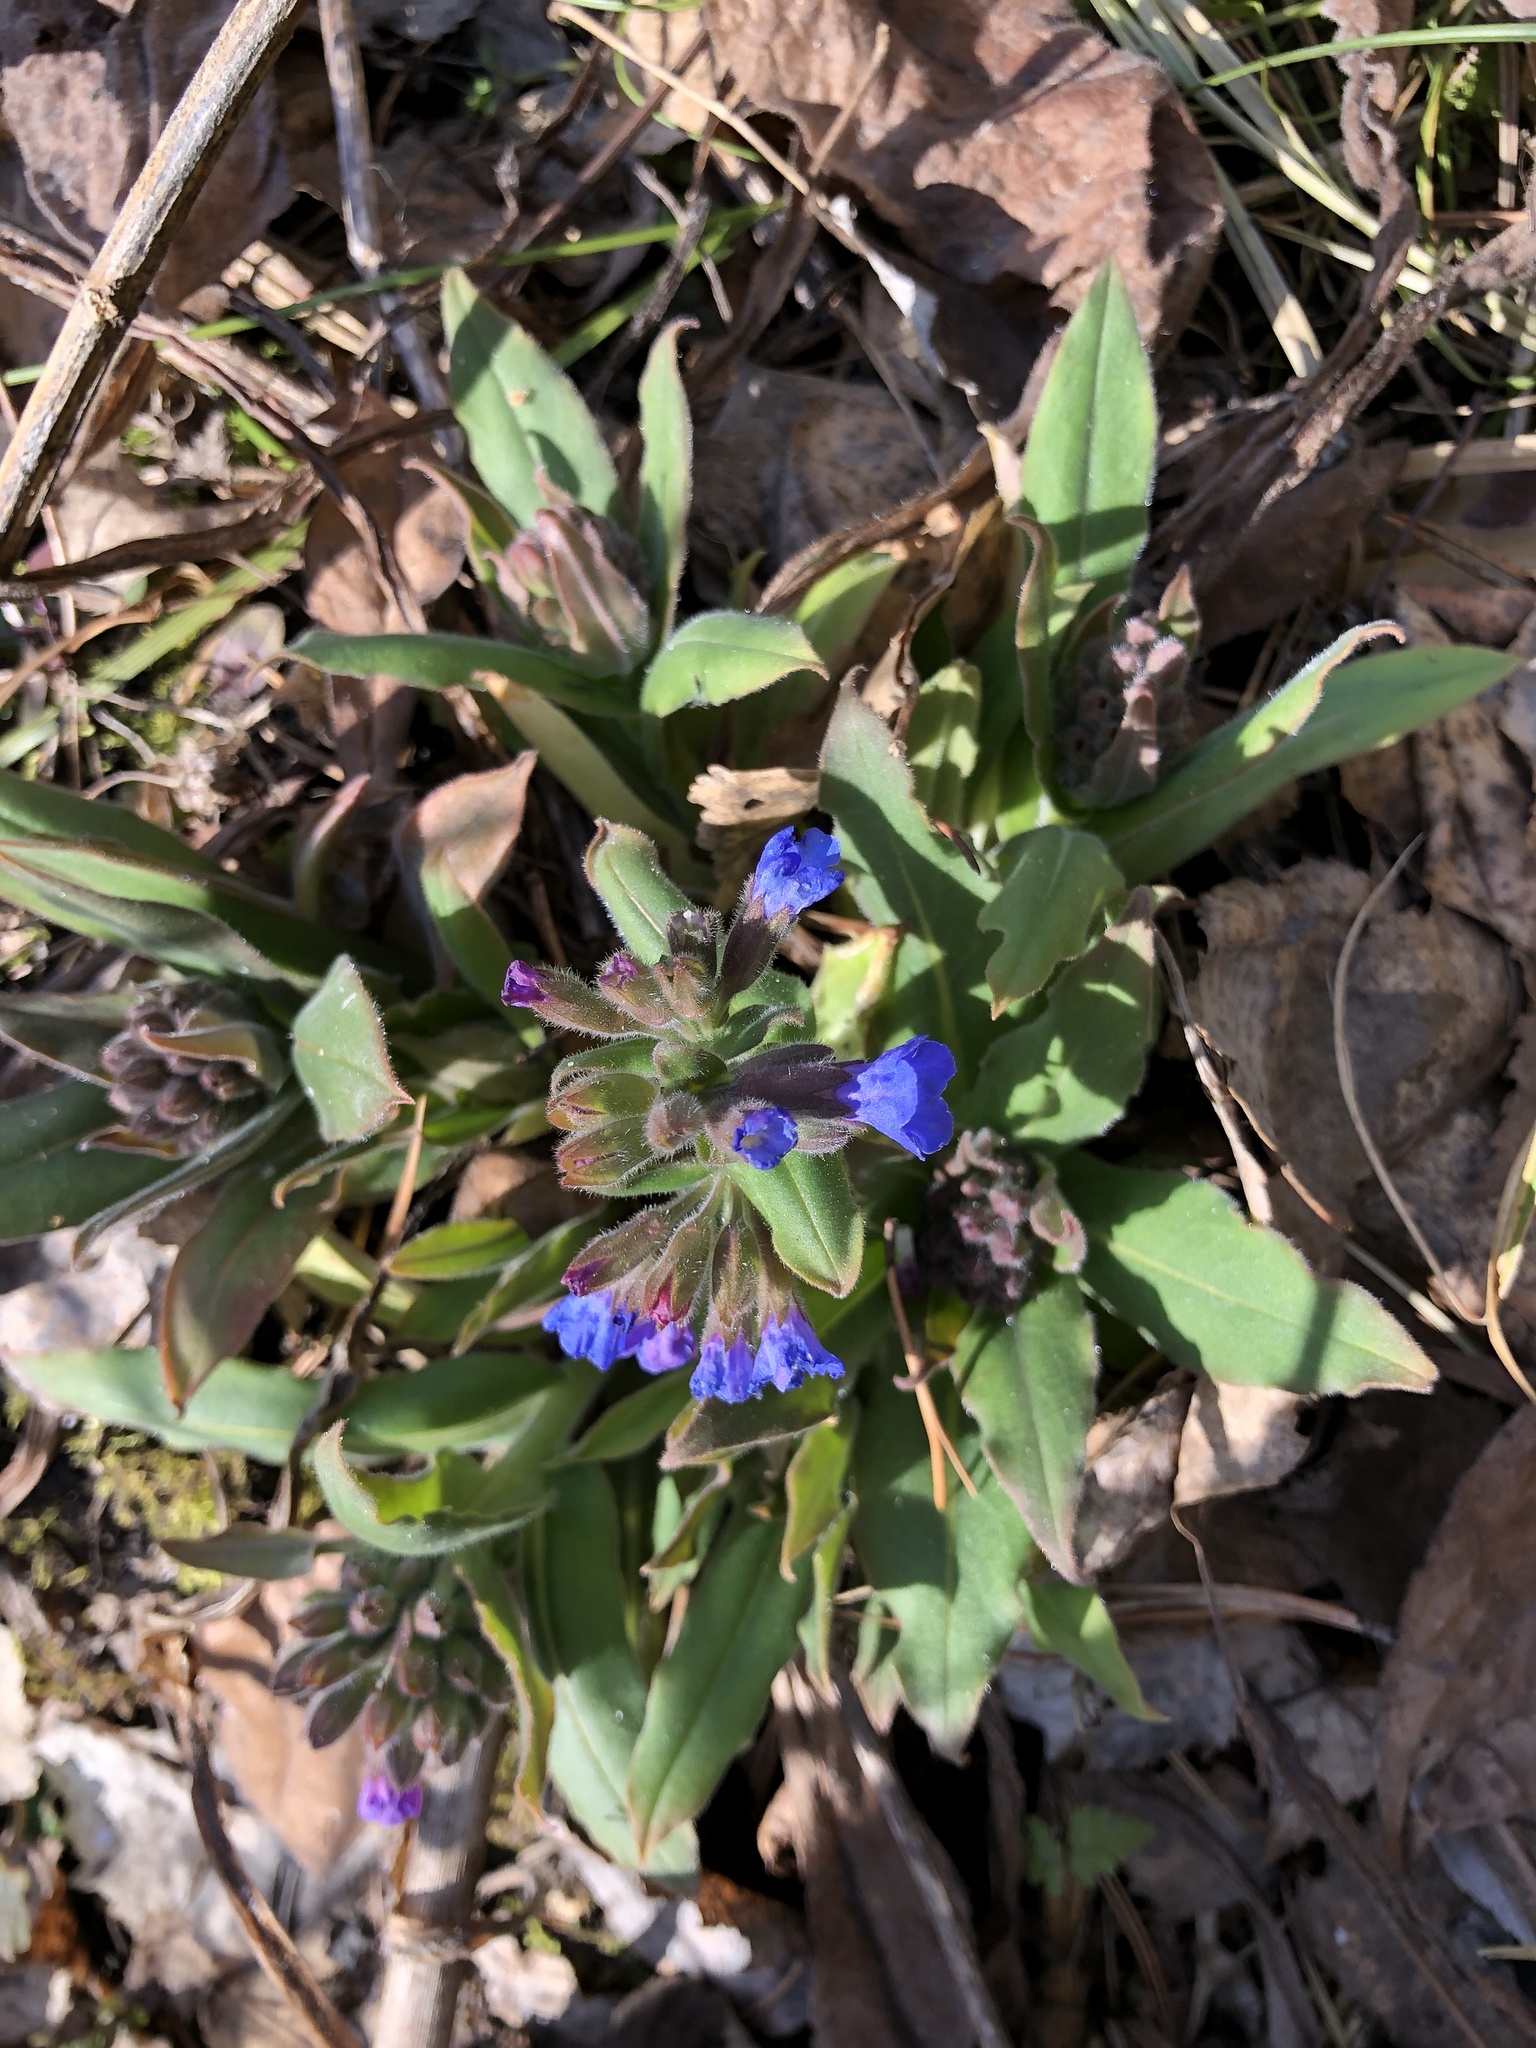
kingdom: Plantae
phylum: Tracheophyta
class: Magnoliopsida
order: Boraginales
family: Boraginaceae
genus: Pulmonaria
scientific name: Pulmonaria mollis
